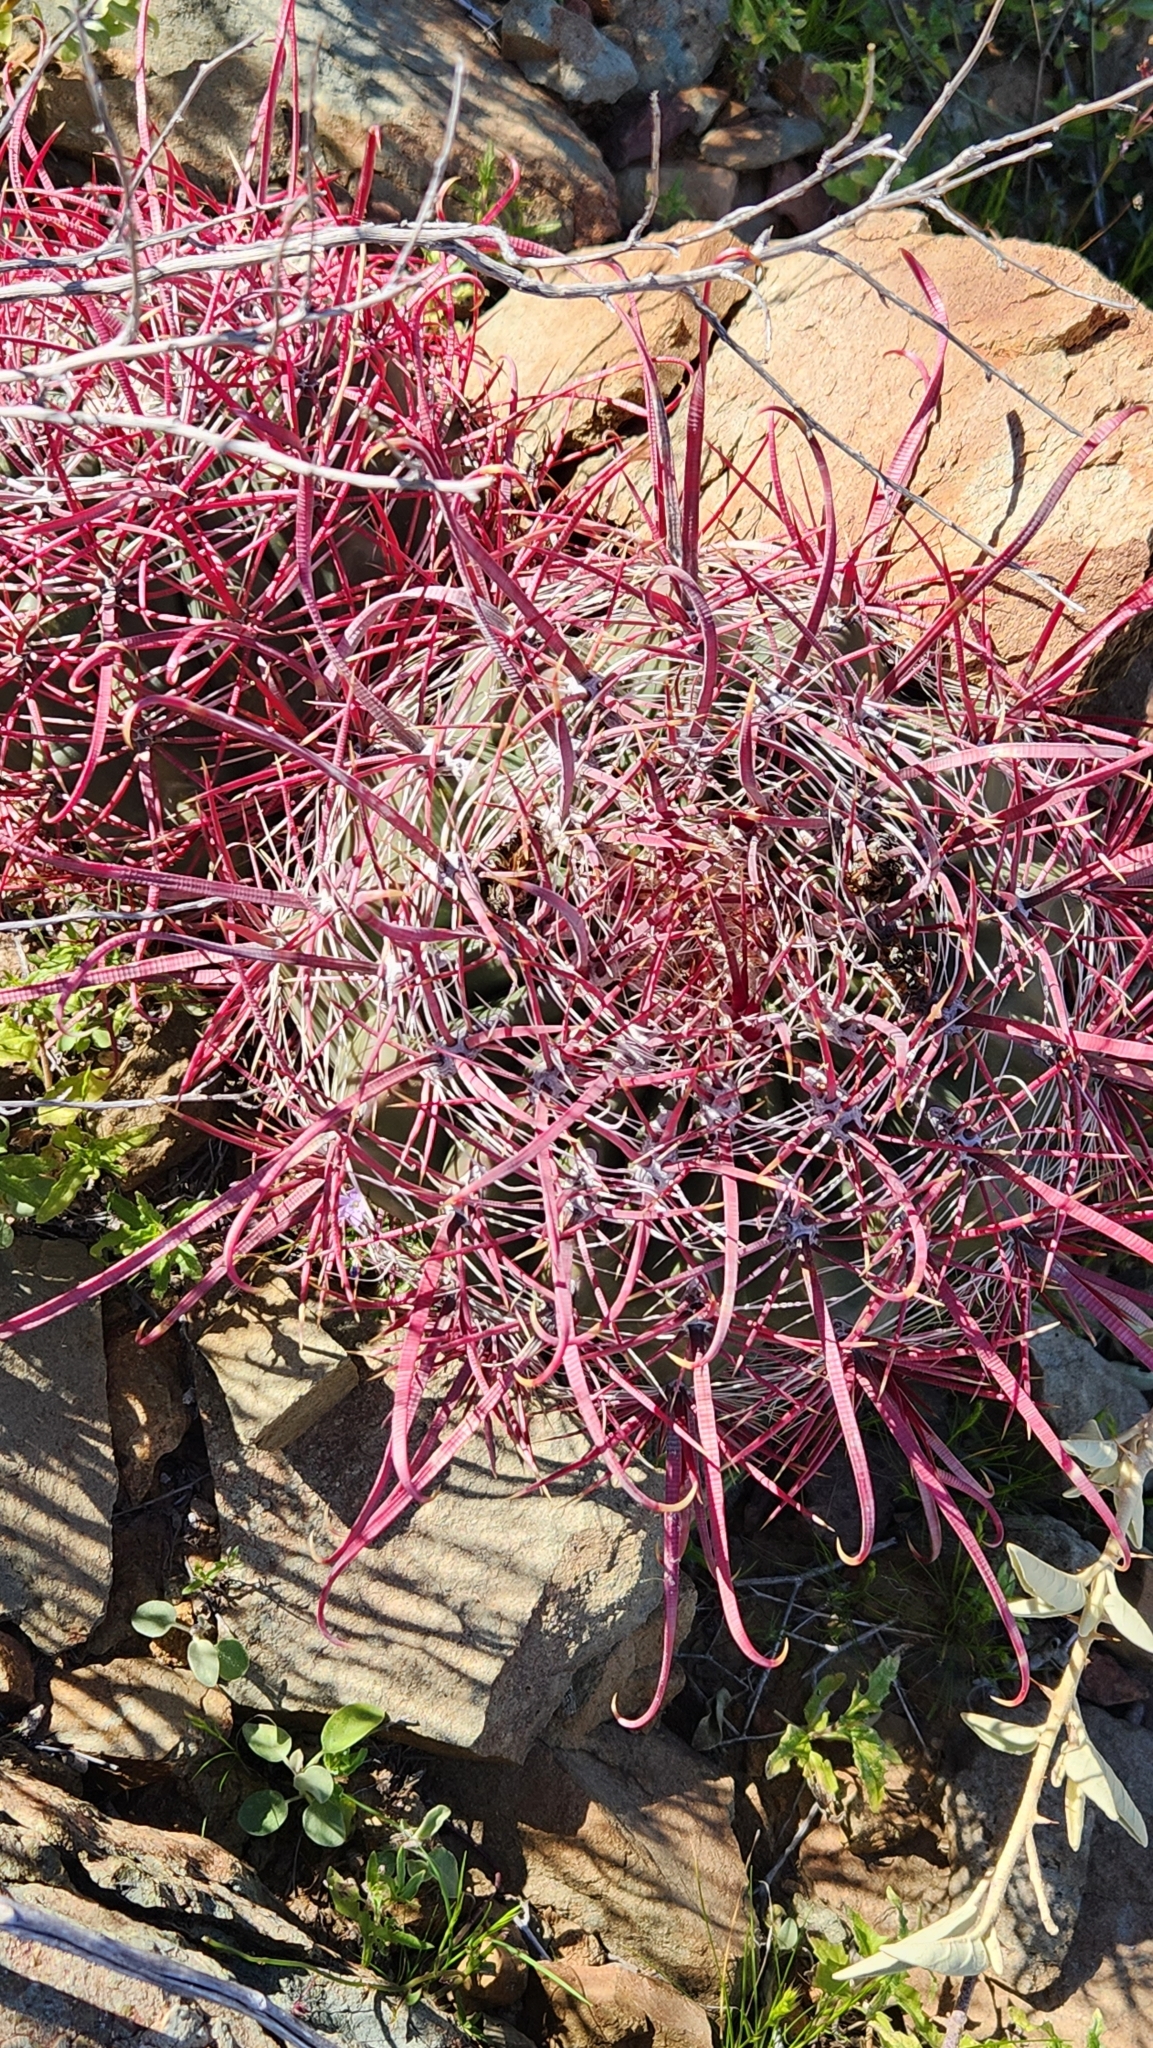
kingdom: Plantae
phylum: Tracheophyta
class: Magnoliopsida
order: Caryophyllales
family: Cactaceae
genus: Ferocactus
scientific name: Ferocactus cylindraceus
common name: California barrel cactus
